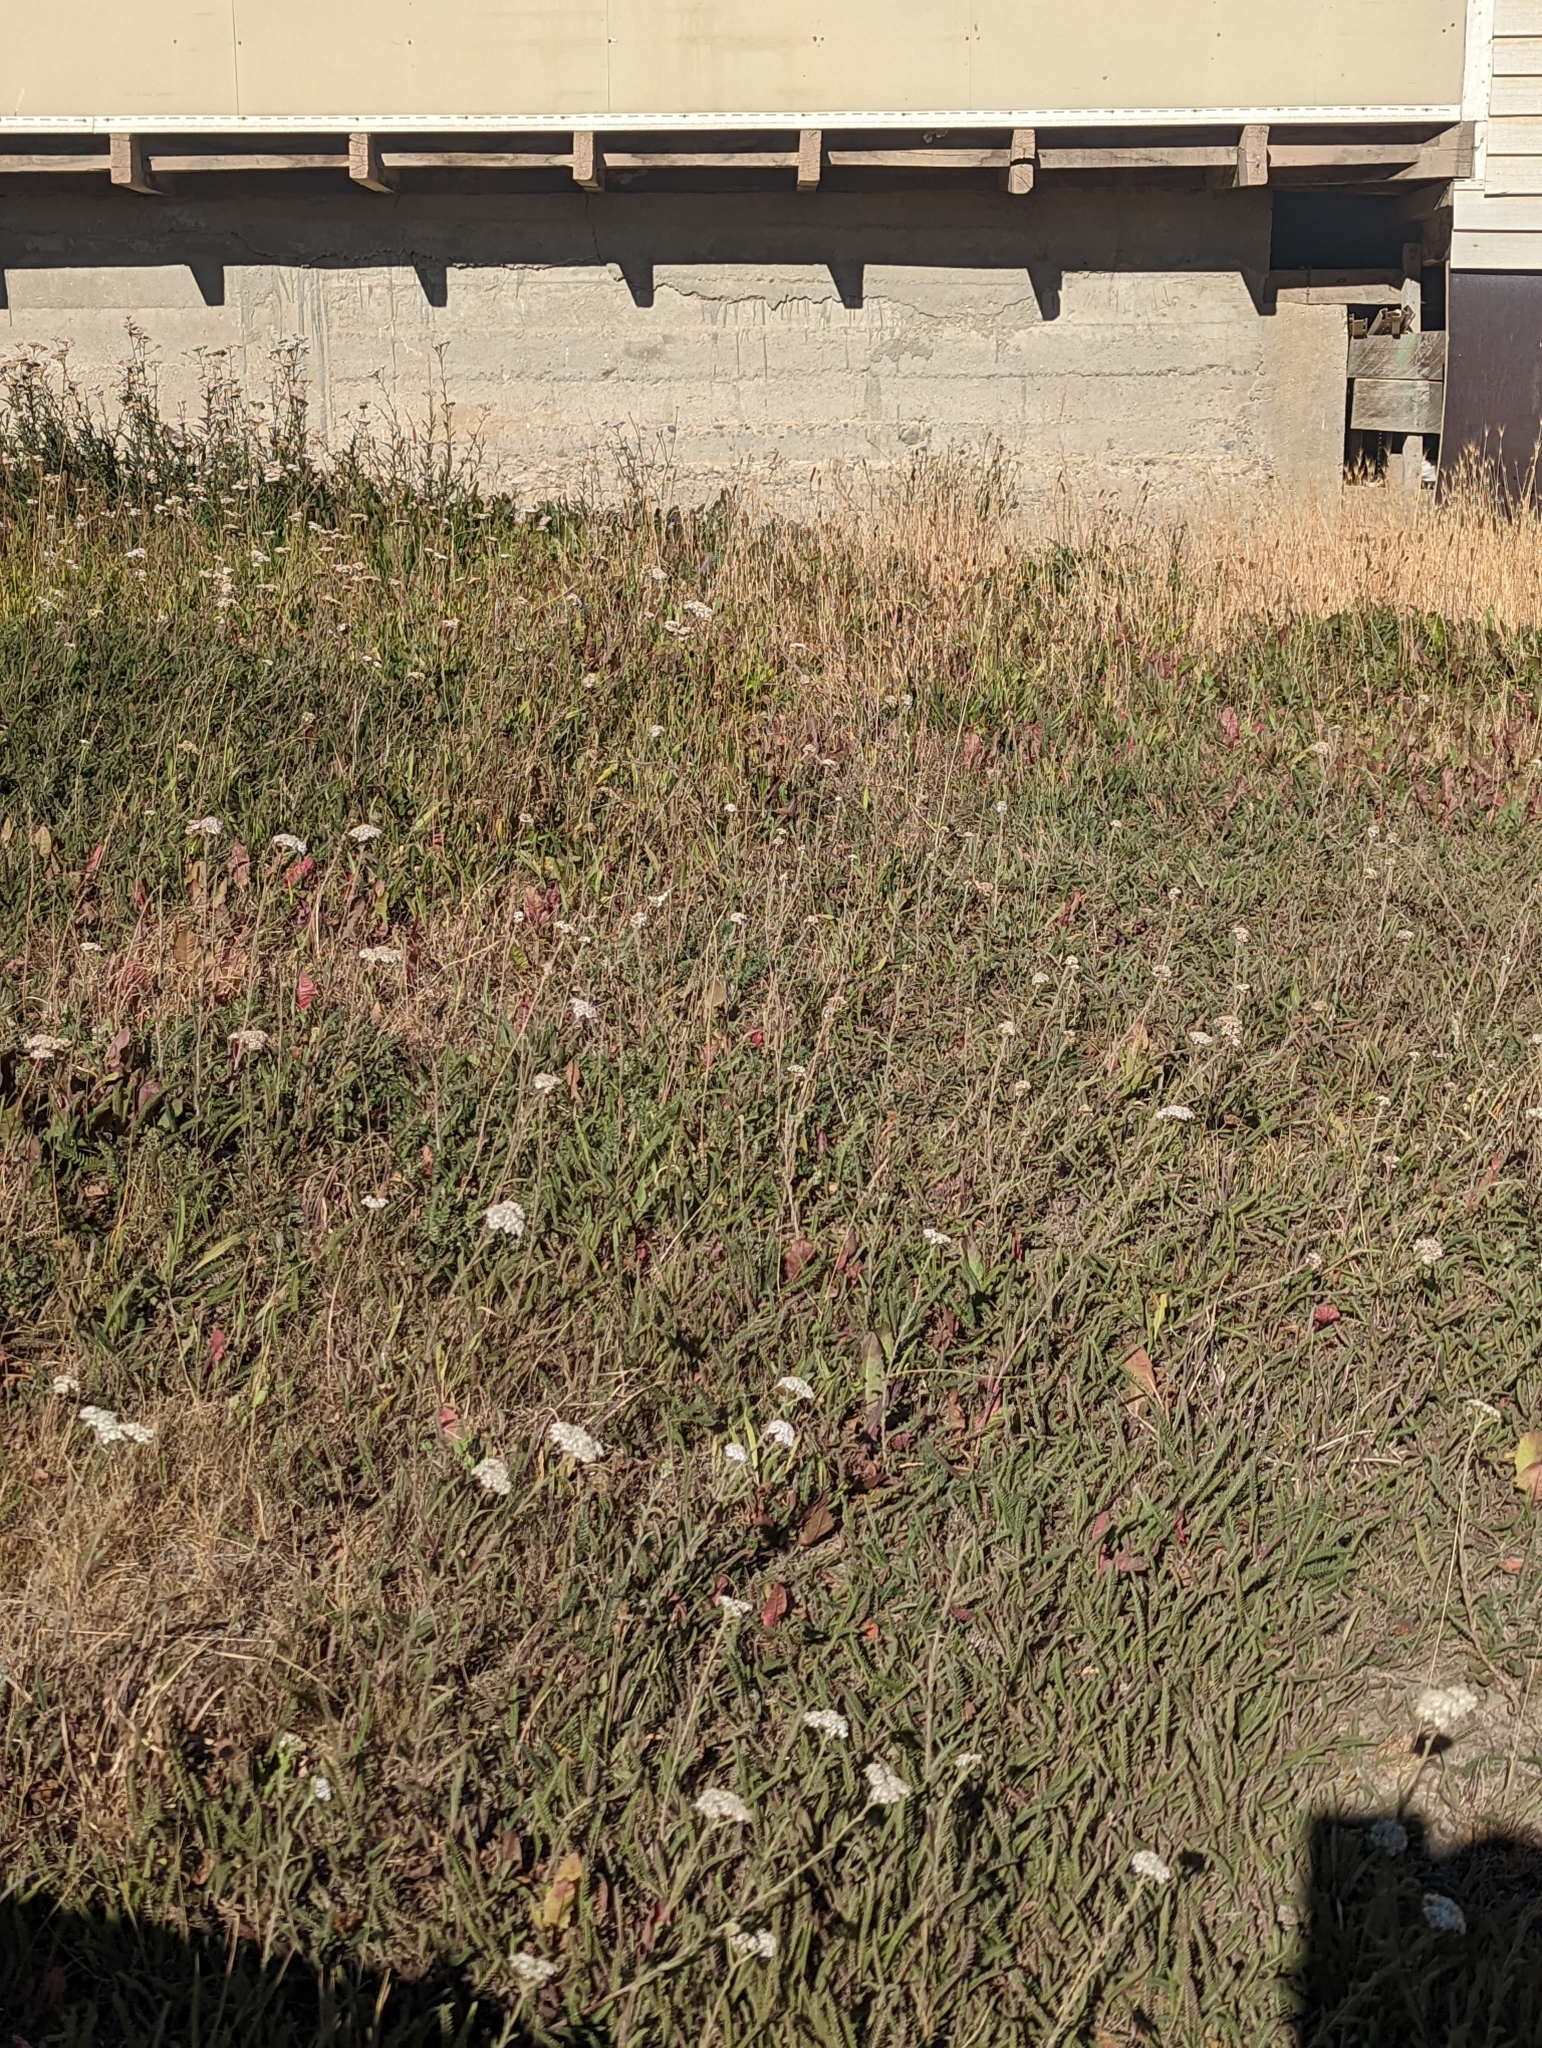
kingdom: Plantae
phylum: Tracheophyta
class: Magnoliopsida
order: Asterales
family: Asteraceae
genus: Achillea
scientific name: Achillea millefolium
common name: Yarrow
